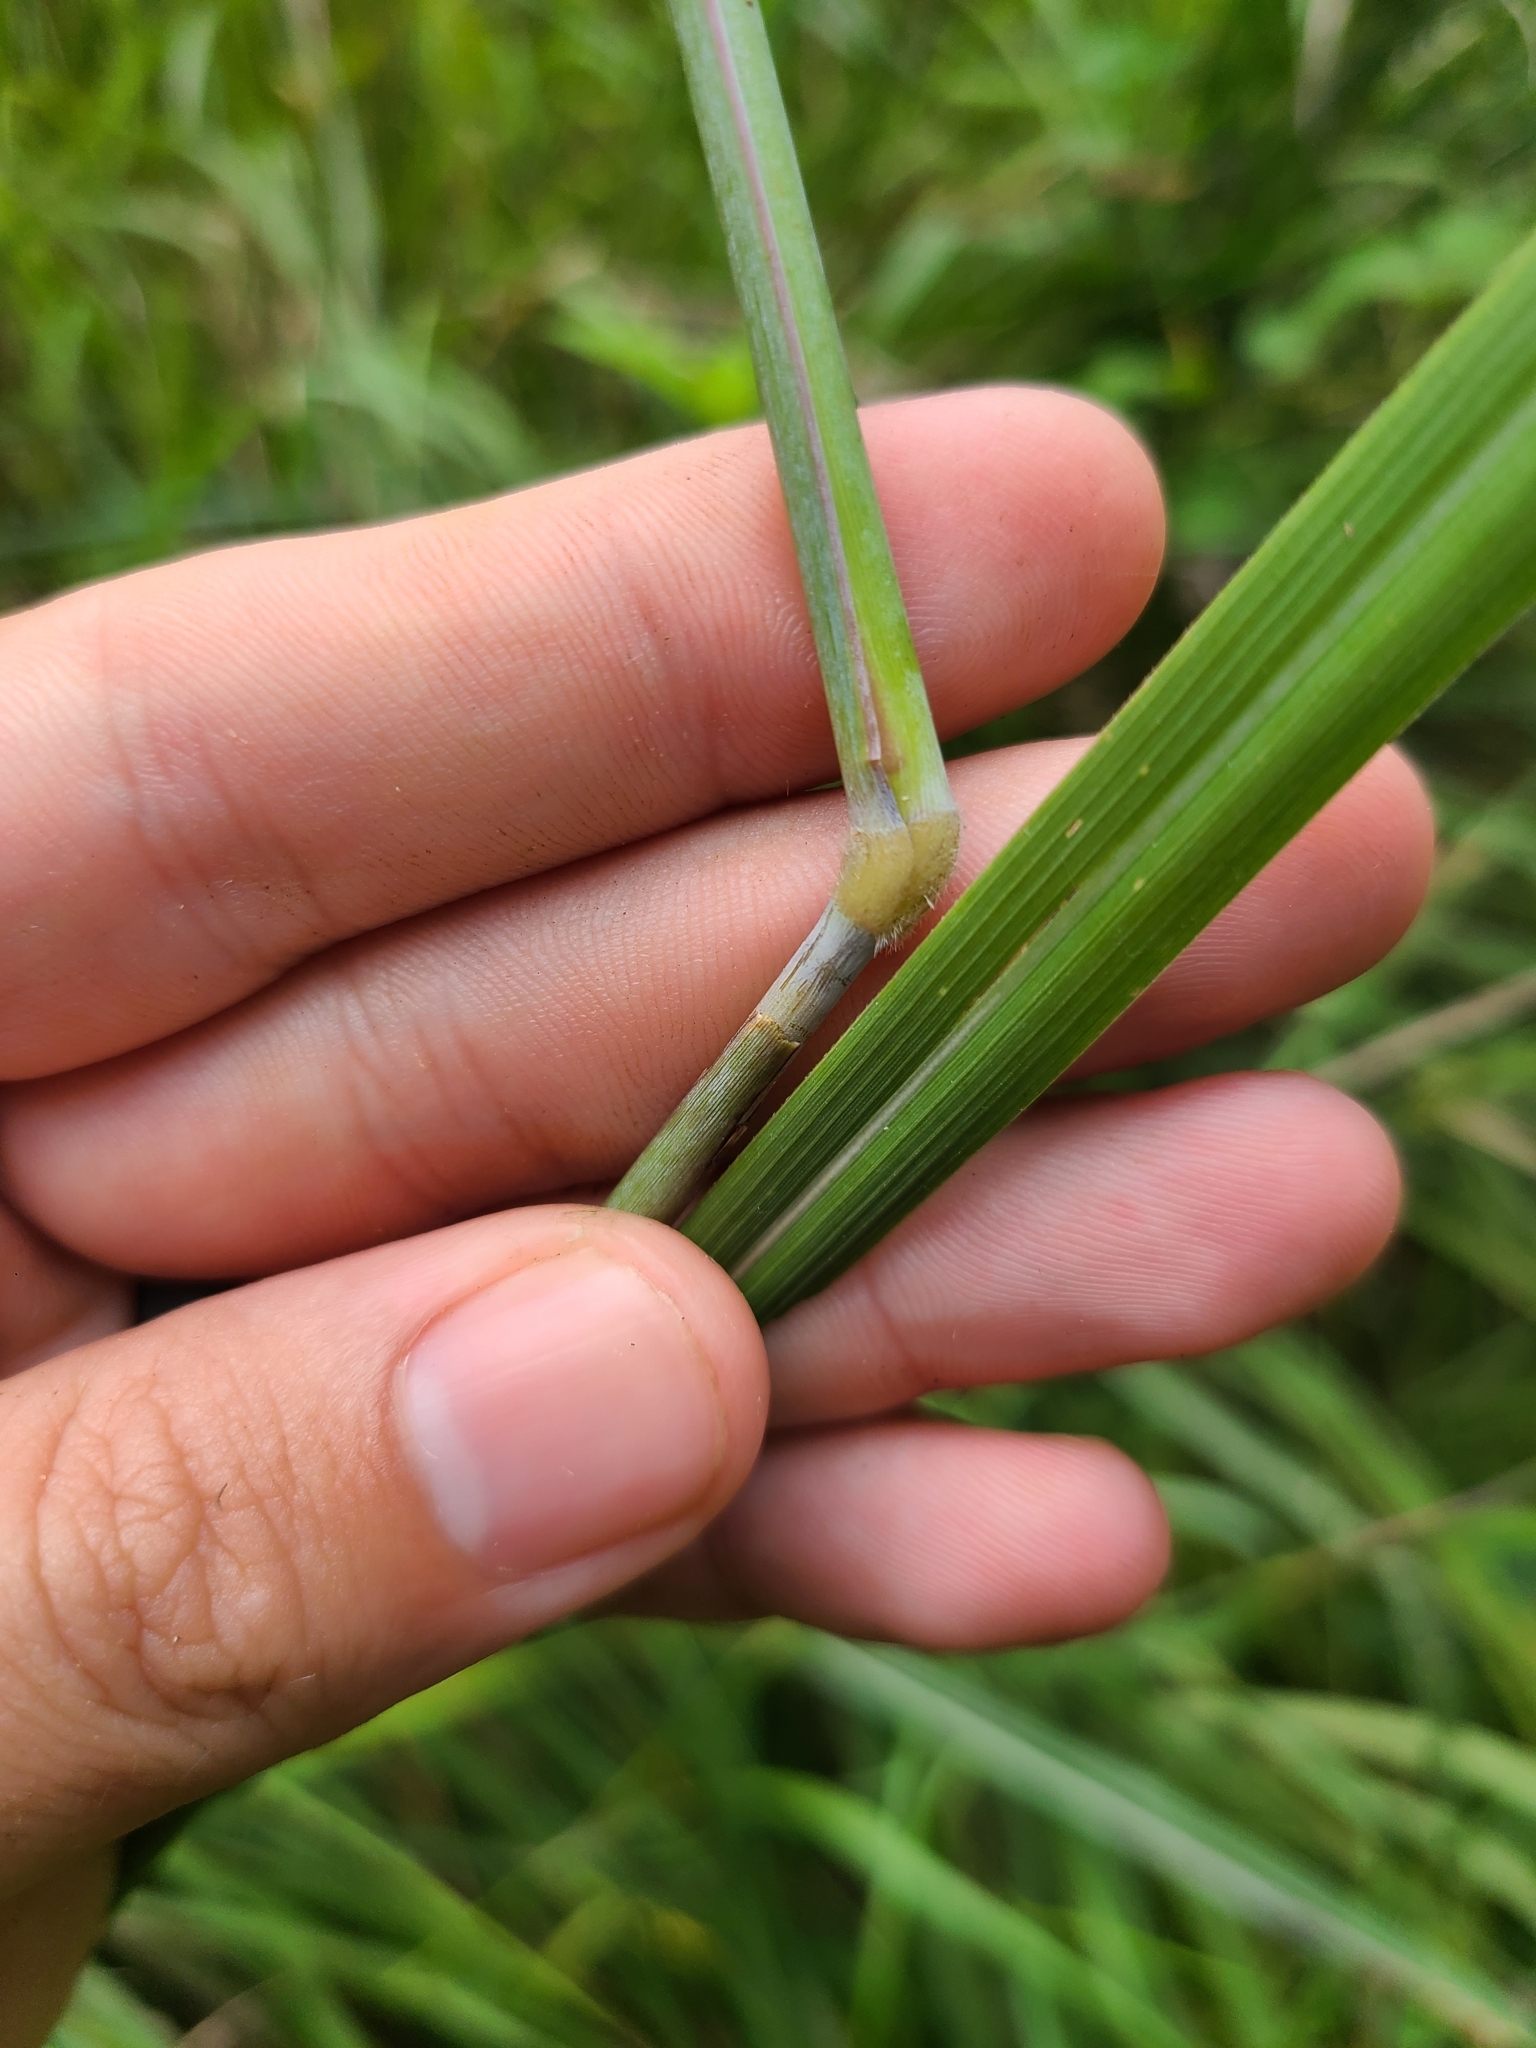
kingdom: Plantae
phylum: Tracheophyta
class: Liliopsida
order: Poales
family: Poaceae
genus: Sorghastrum
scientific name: Sorghastrum nutans
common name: Indian grass
